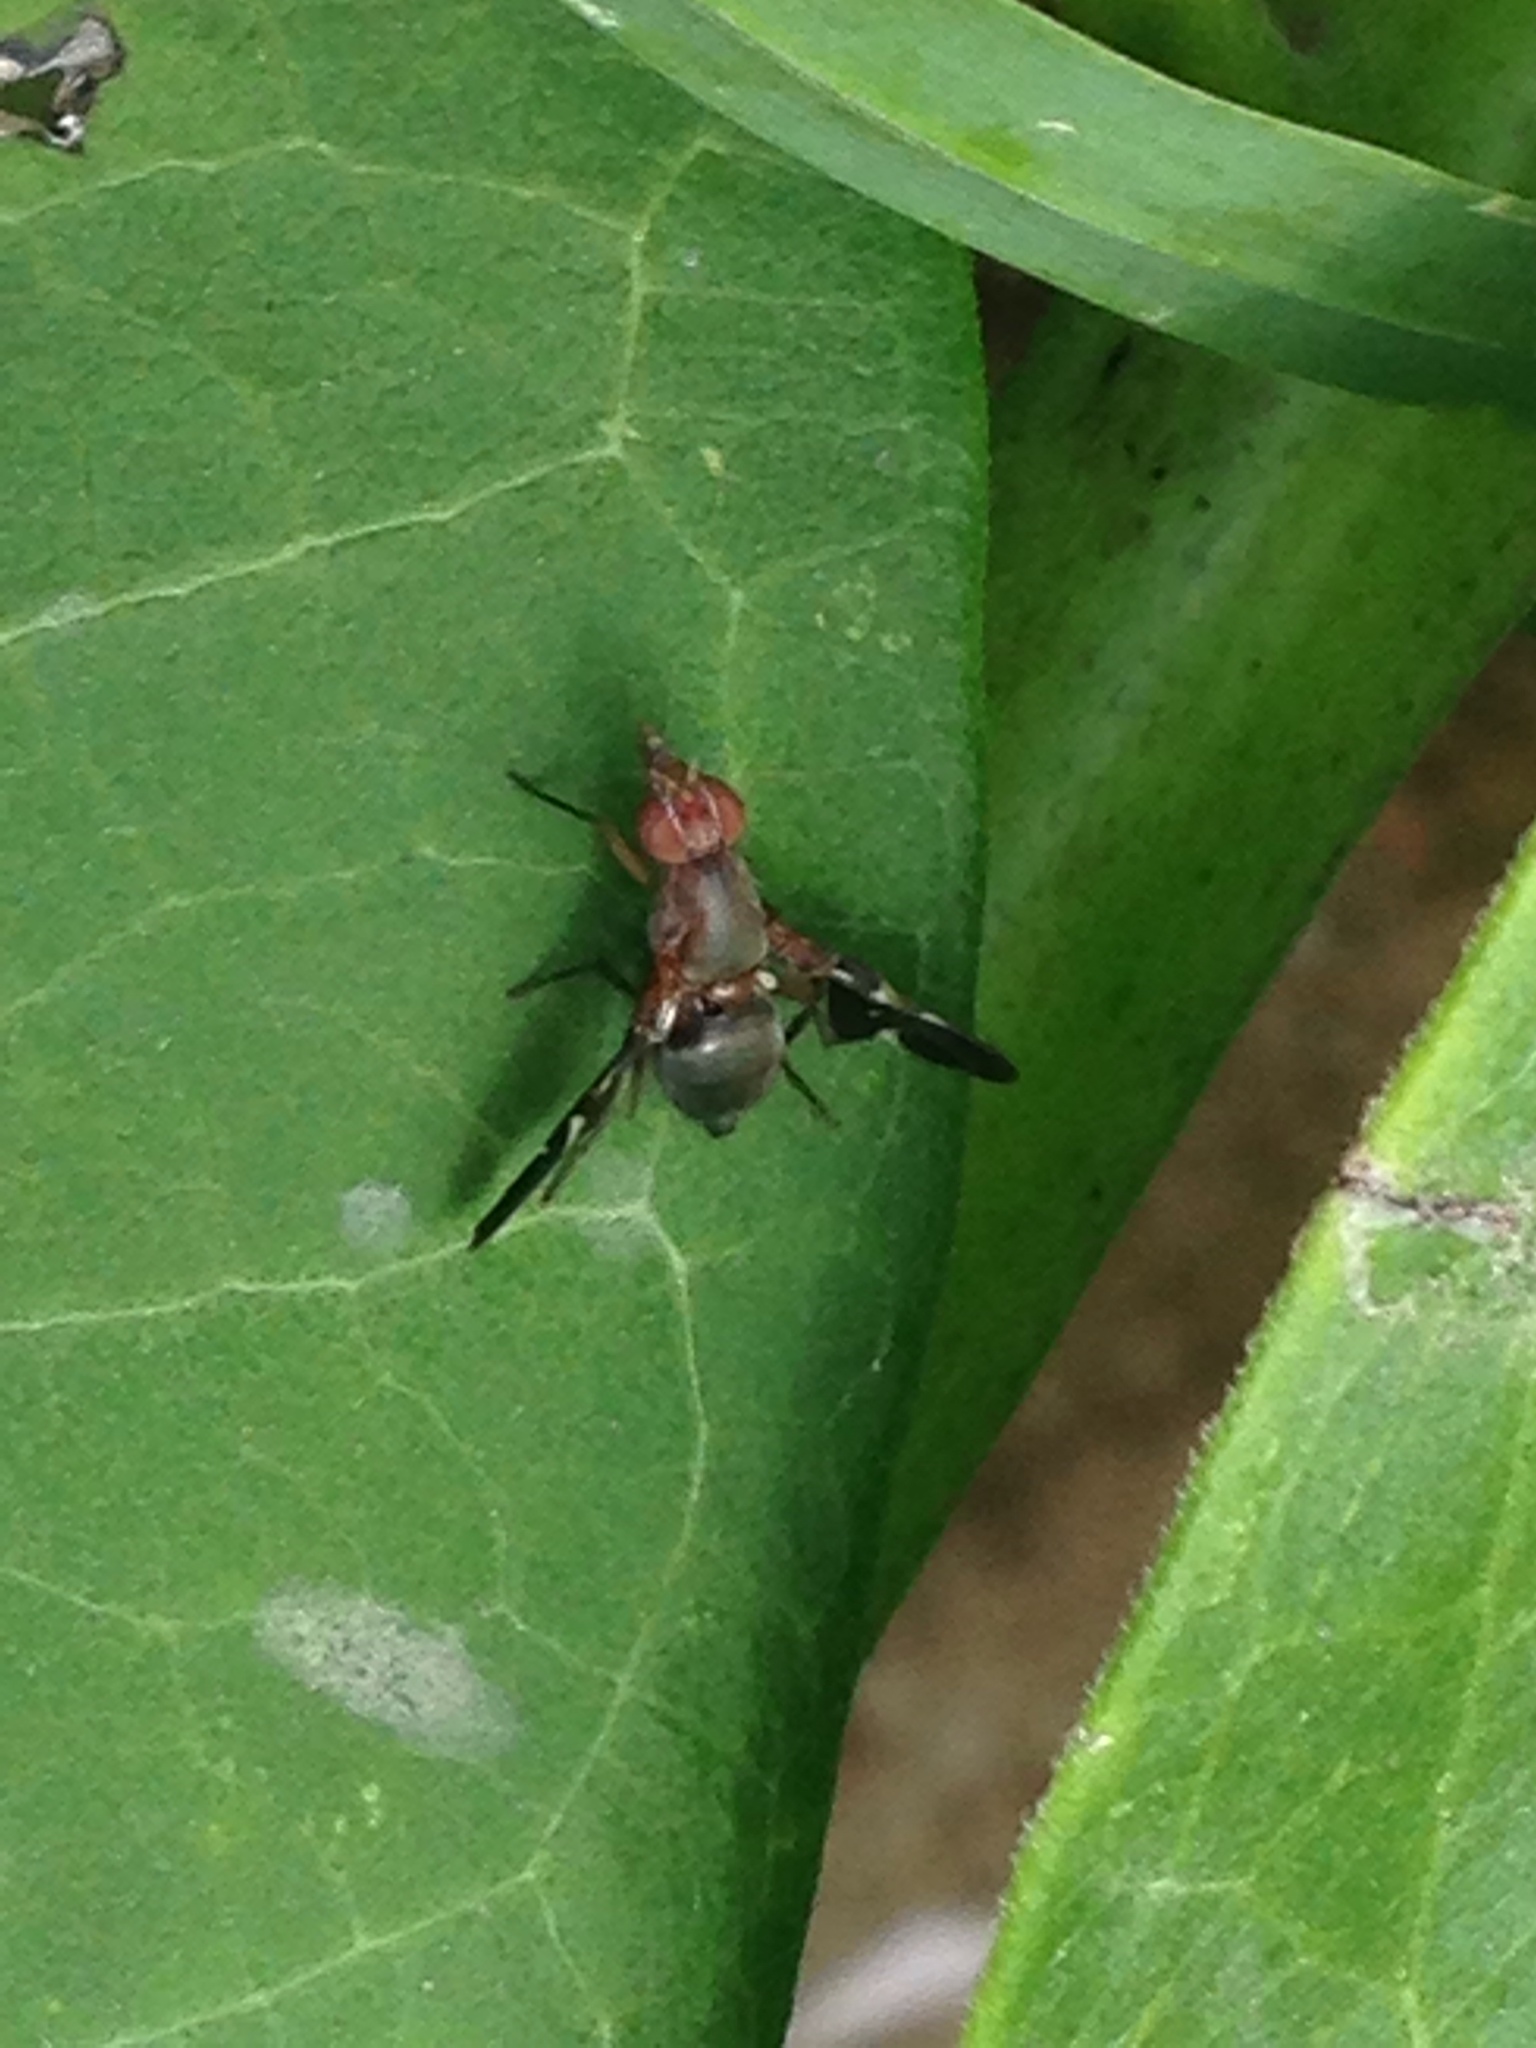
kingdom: Animalia
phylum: Arthropoda
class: Insecta
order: Diptera
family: Ulidiidae
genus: Delphinia
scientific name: Delphinia picta
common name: Common picture-winged fly
